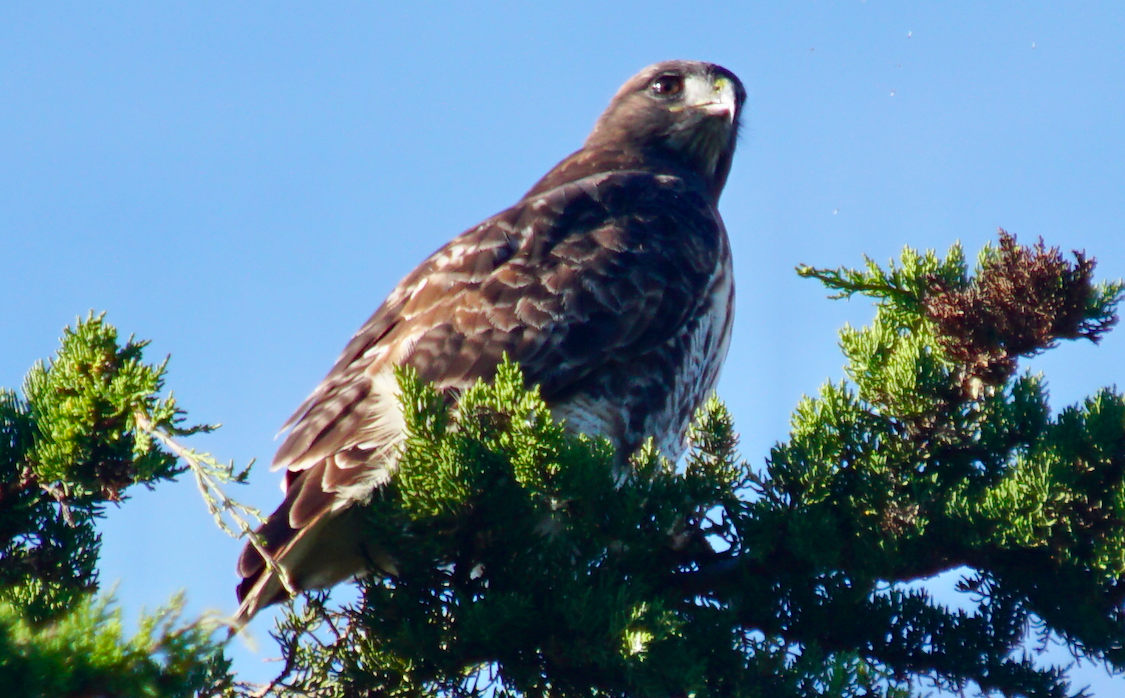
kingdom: Animalia
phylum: Chordata
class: Aves
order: Accipitriformes
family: Accipitridae
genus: Buteo
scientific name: Buteo jamaicensis
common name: Red-tailed hawk
